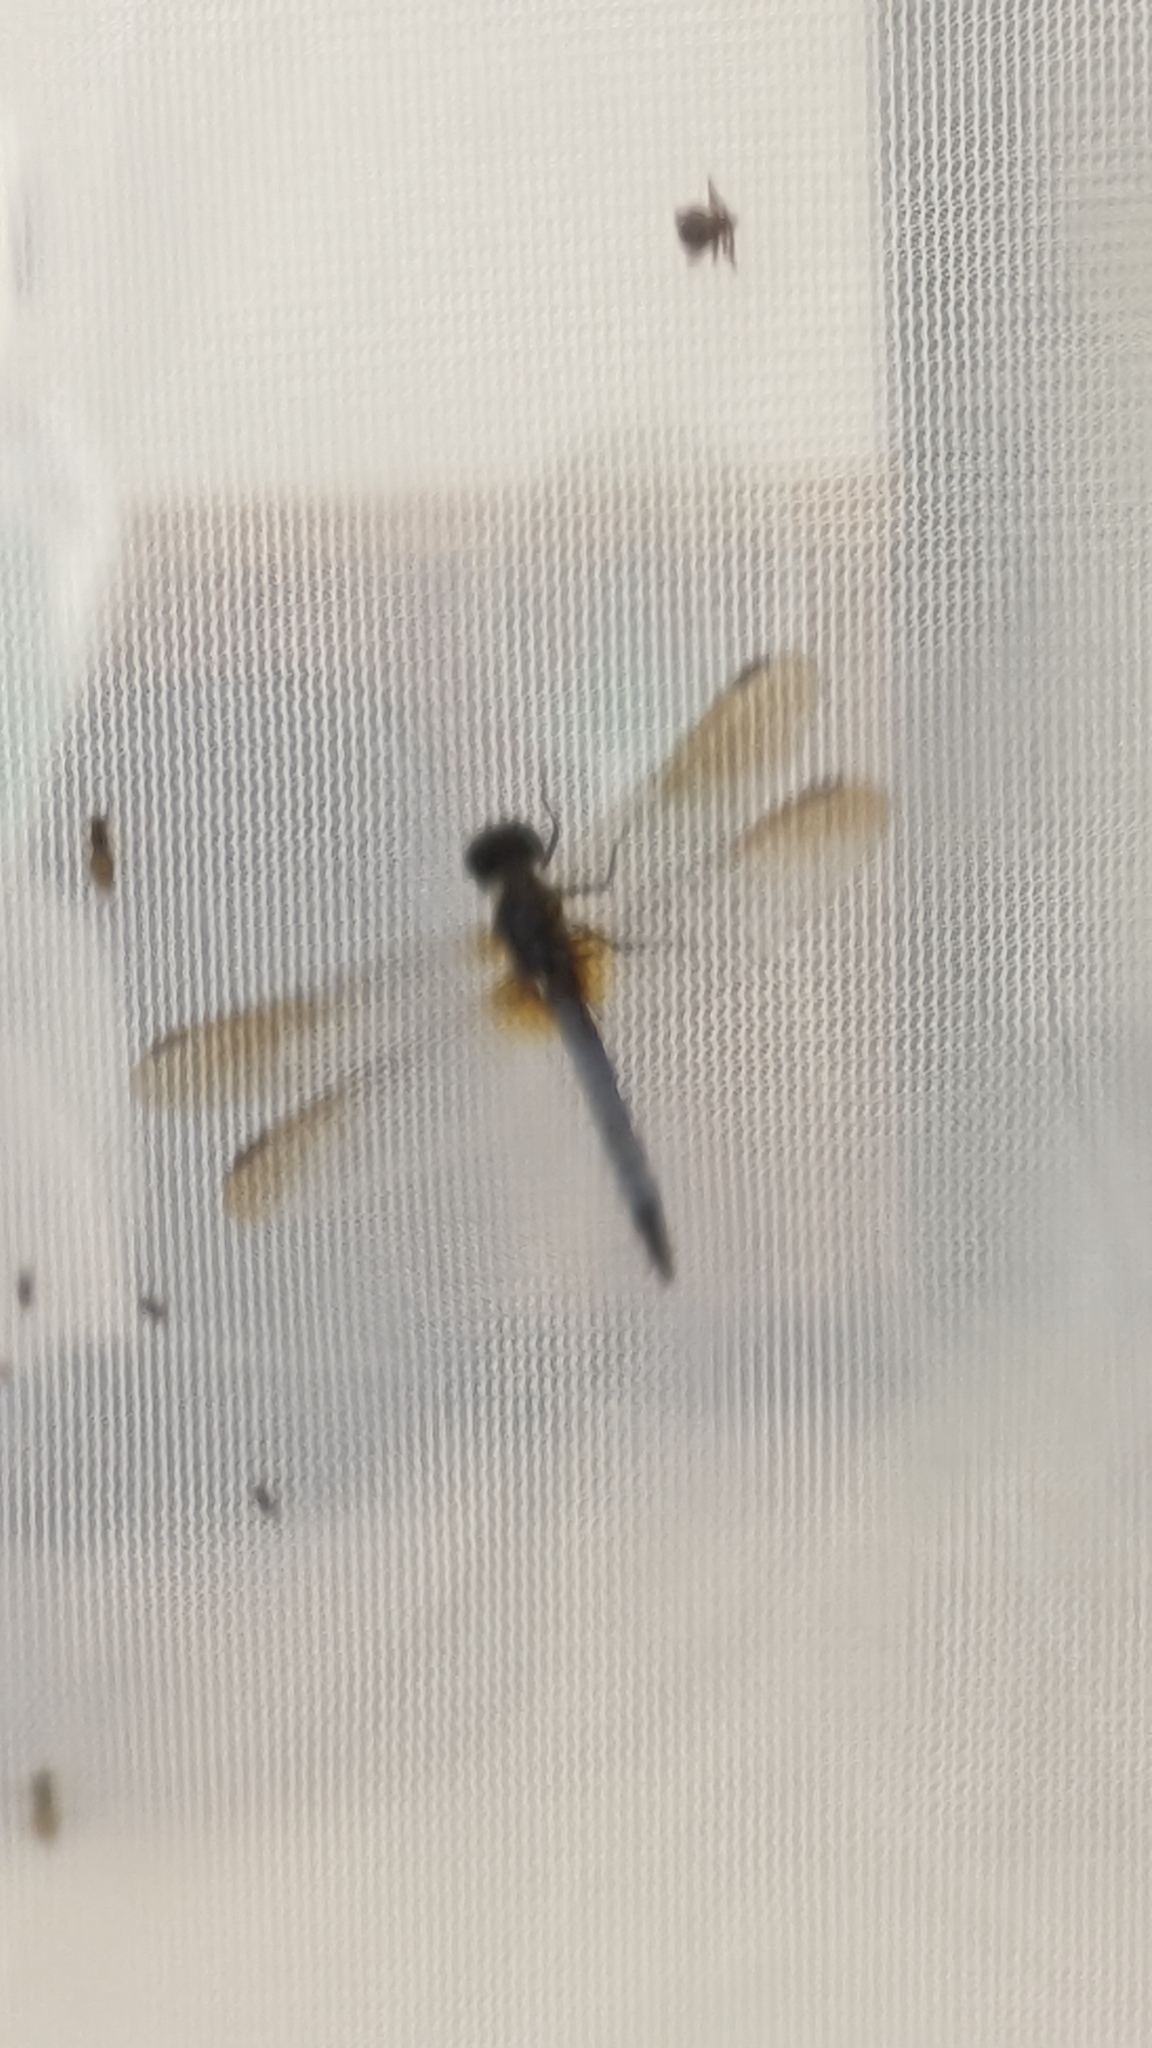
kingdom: Animalia
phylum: Arthropoda
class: Insecta
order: Odonata
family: Libellulidae
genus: Pachydiplax
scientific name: Pachydiplax longipennis
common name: Blue dasher
